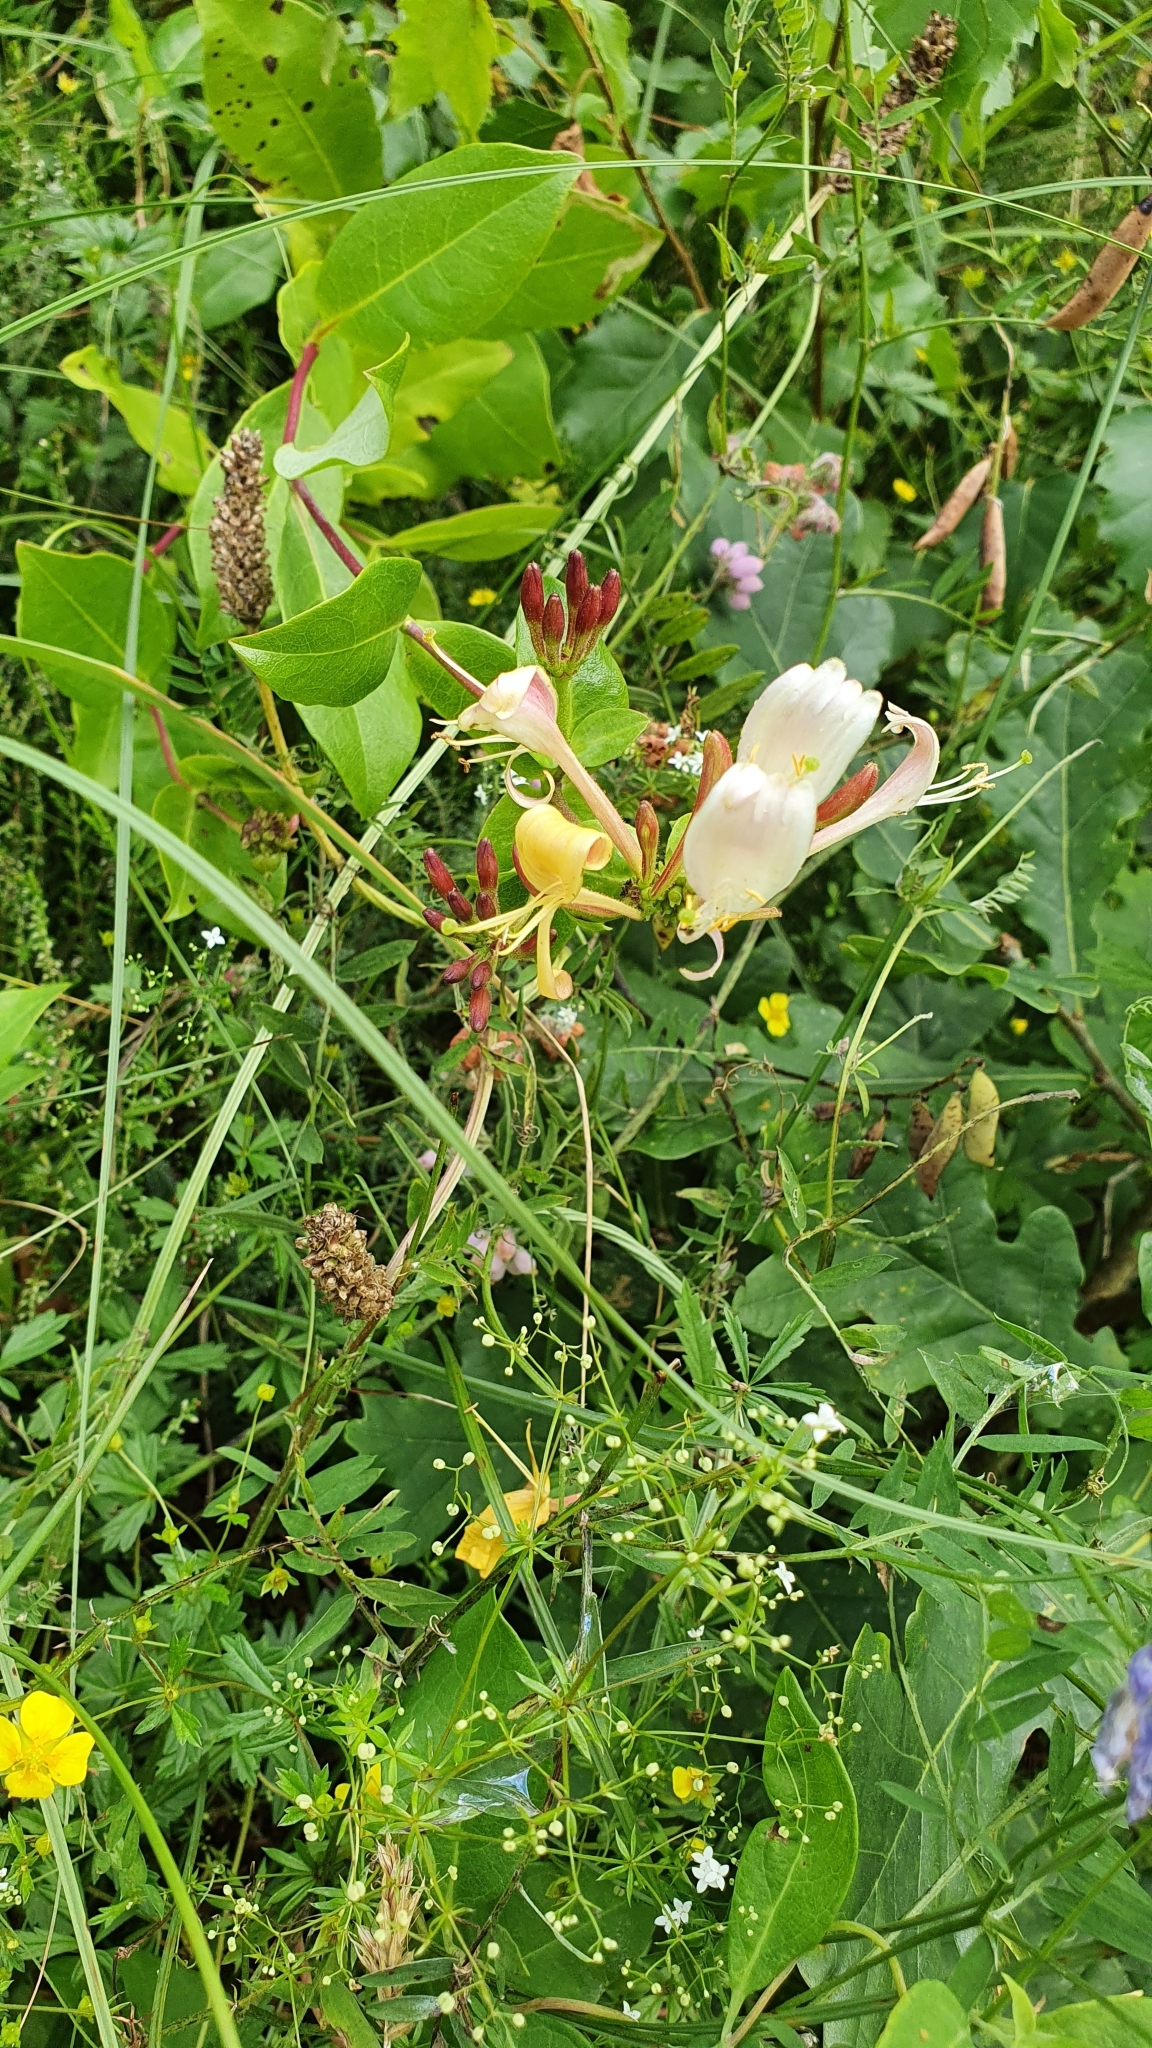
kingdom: Plantae
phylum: Tracheophyta
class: Magnoliopsida
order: Dipsacales
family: Caprifoliaceae
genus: Lonicera
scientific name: Lonicera periclymenum
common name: European honeysuckle
